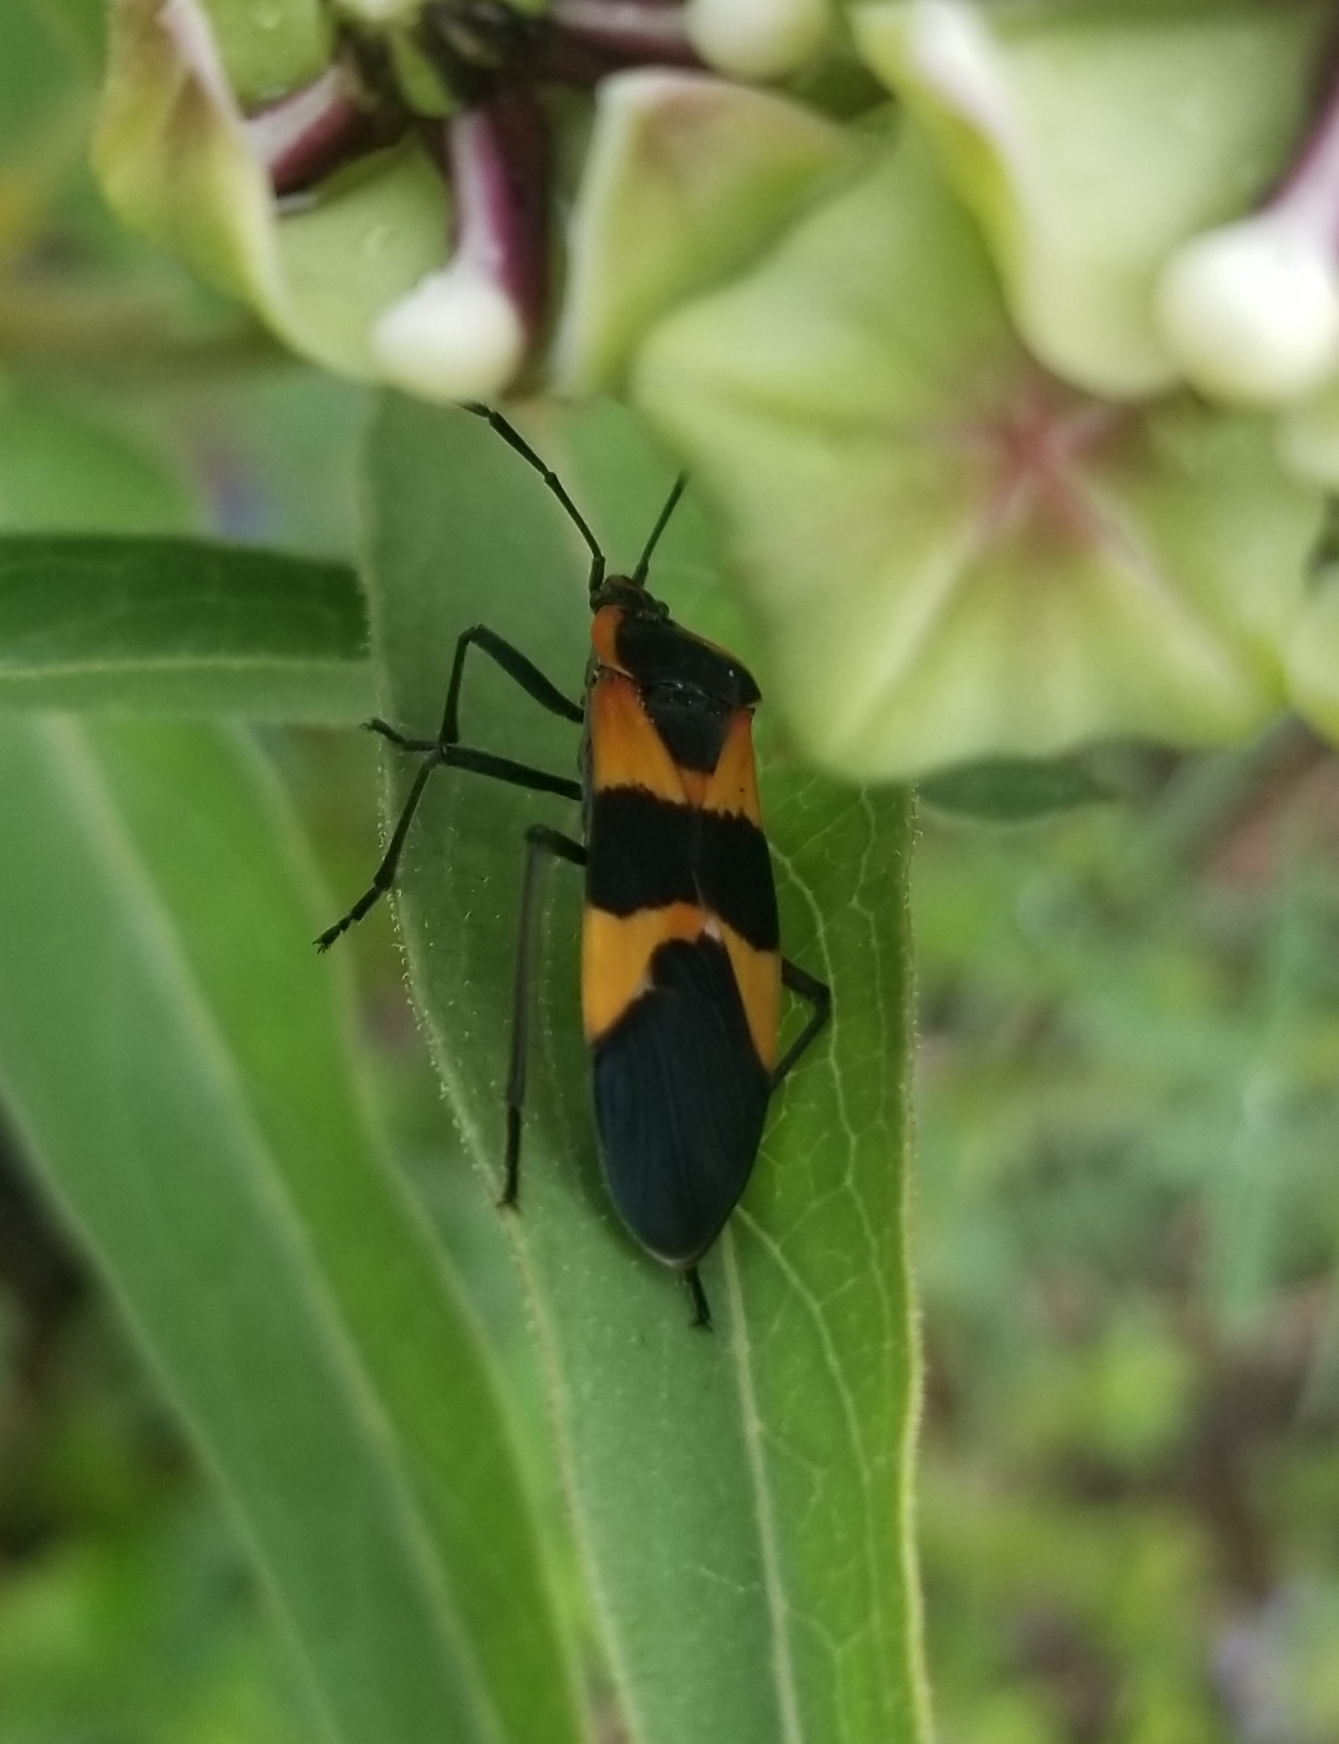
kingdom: Animalia
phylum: Arthropoda
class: Insecta
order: Hemiptera
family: Lygaeidae
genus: Oncopeltus
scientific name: Oncopeltus fasciatus
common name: Large milkweed bug
